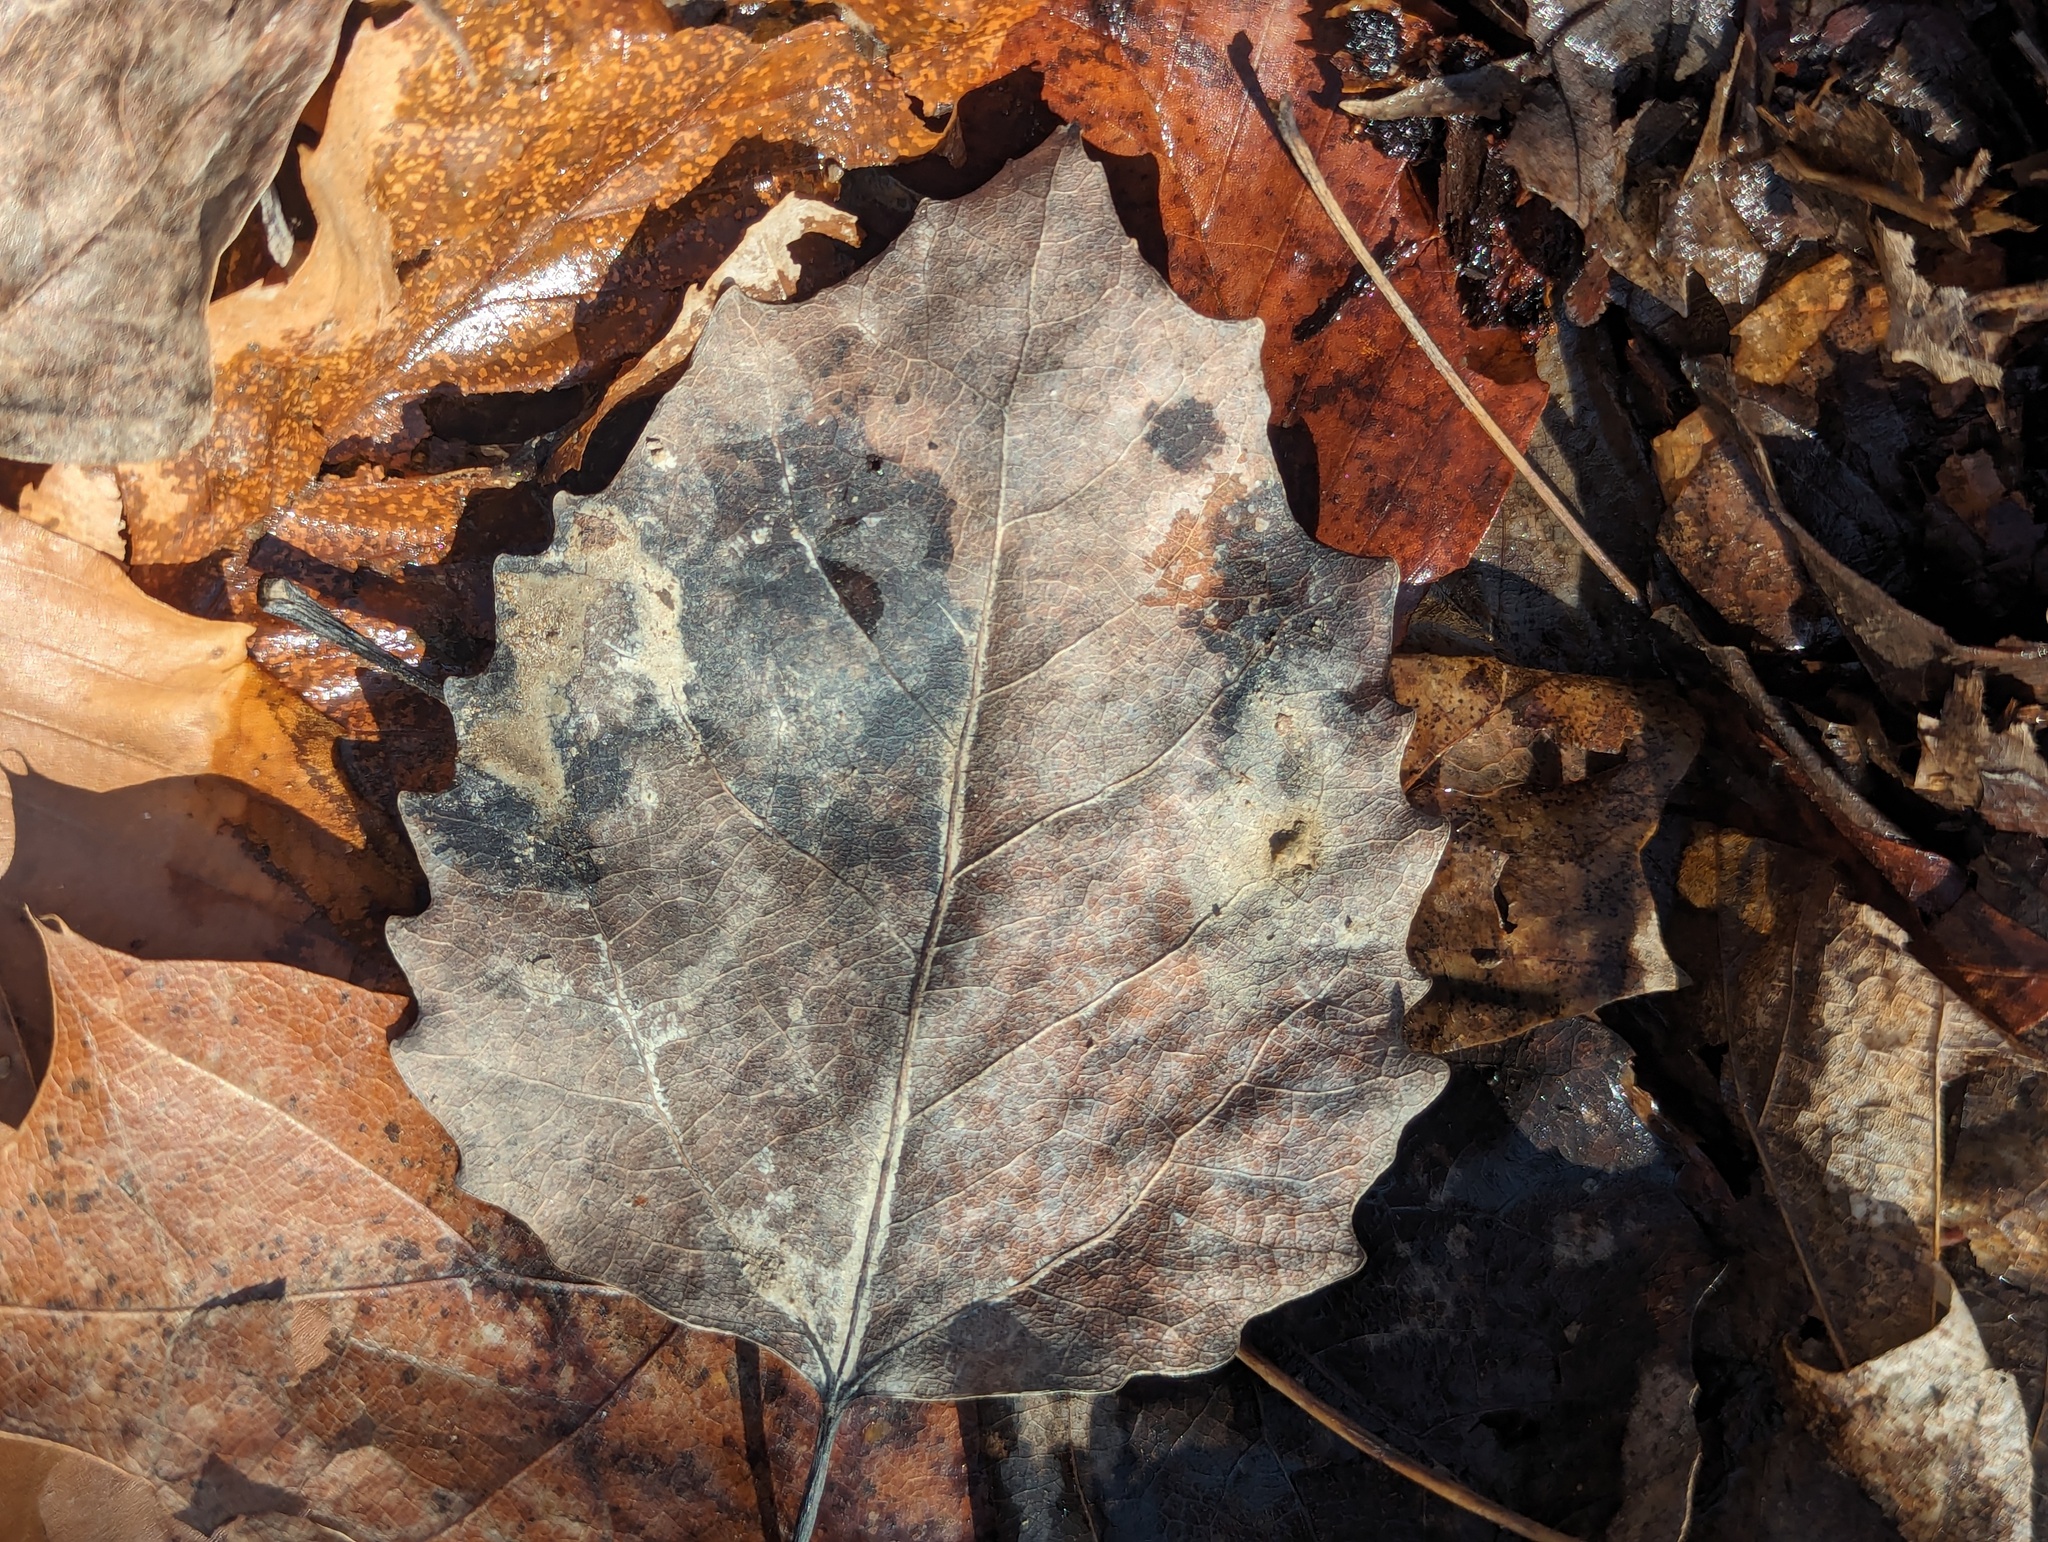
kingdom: Plantae
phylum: Tracheophyta
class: Magnoliopsida
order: Malpighiales
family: Salicaceae
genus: Populus
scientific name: Populus grandidentata
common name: Bigtooth aspen
